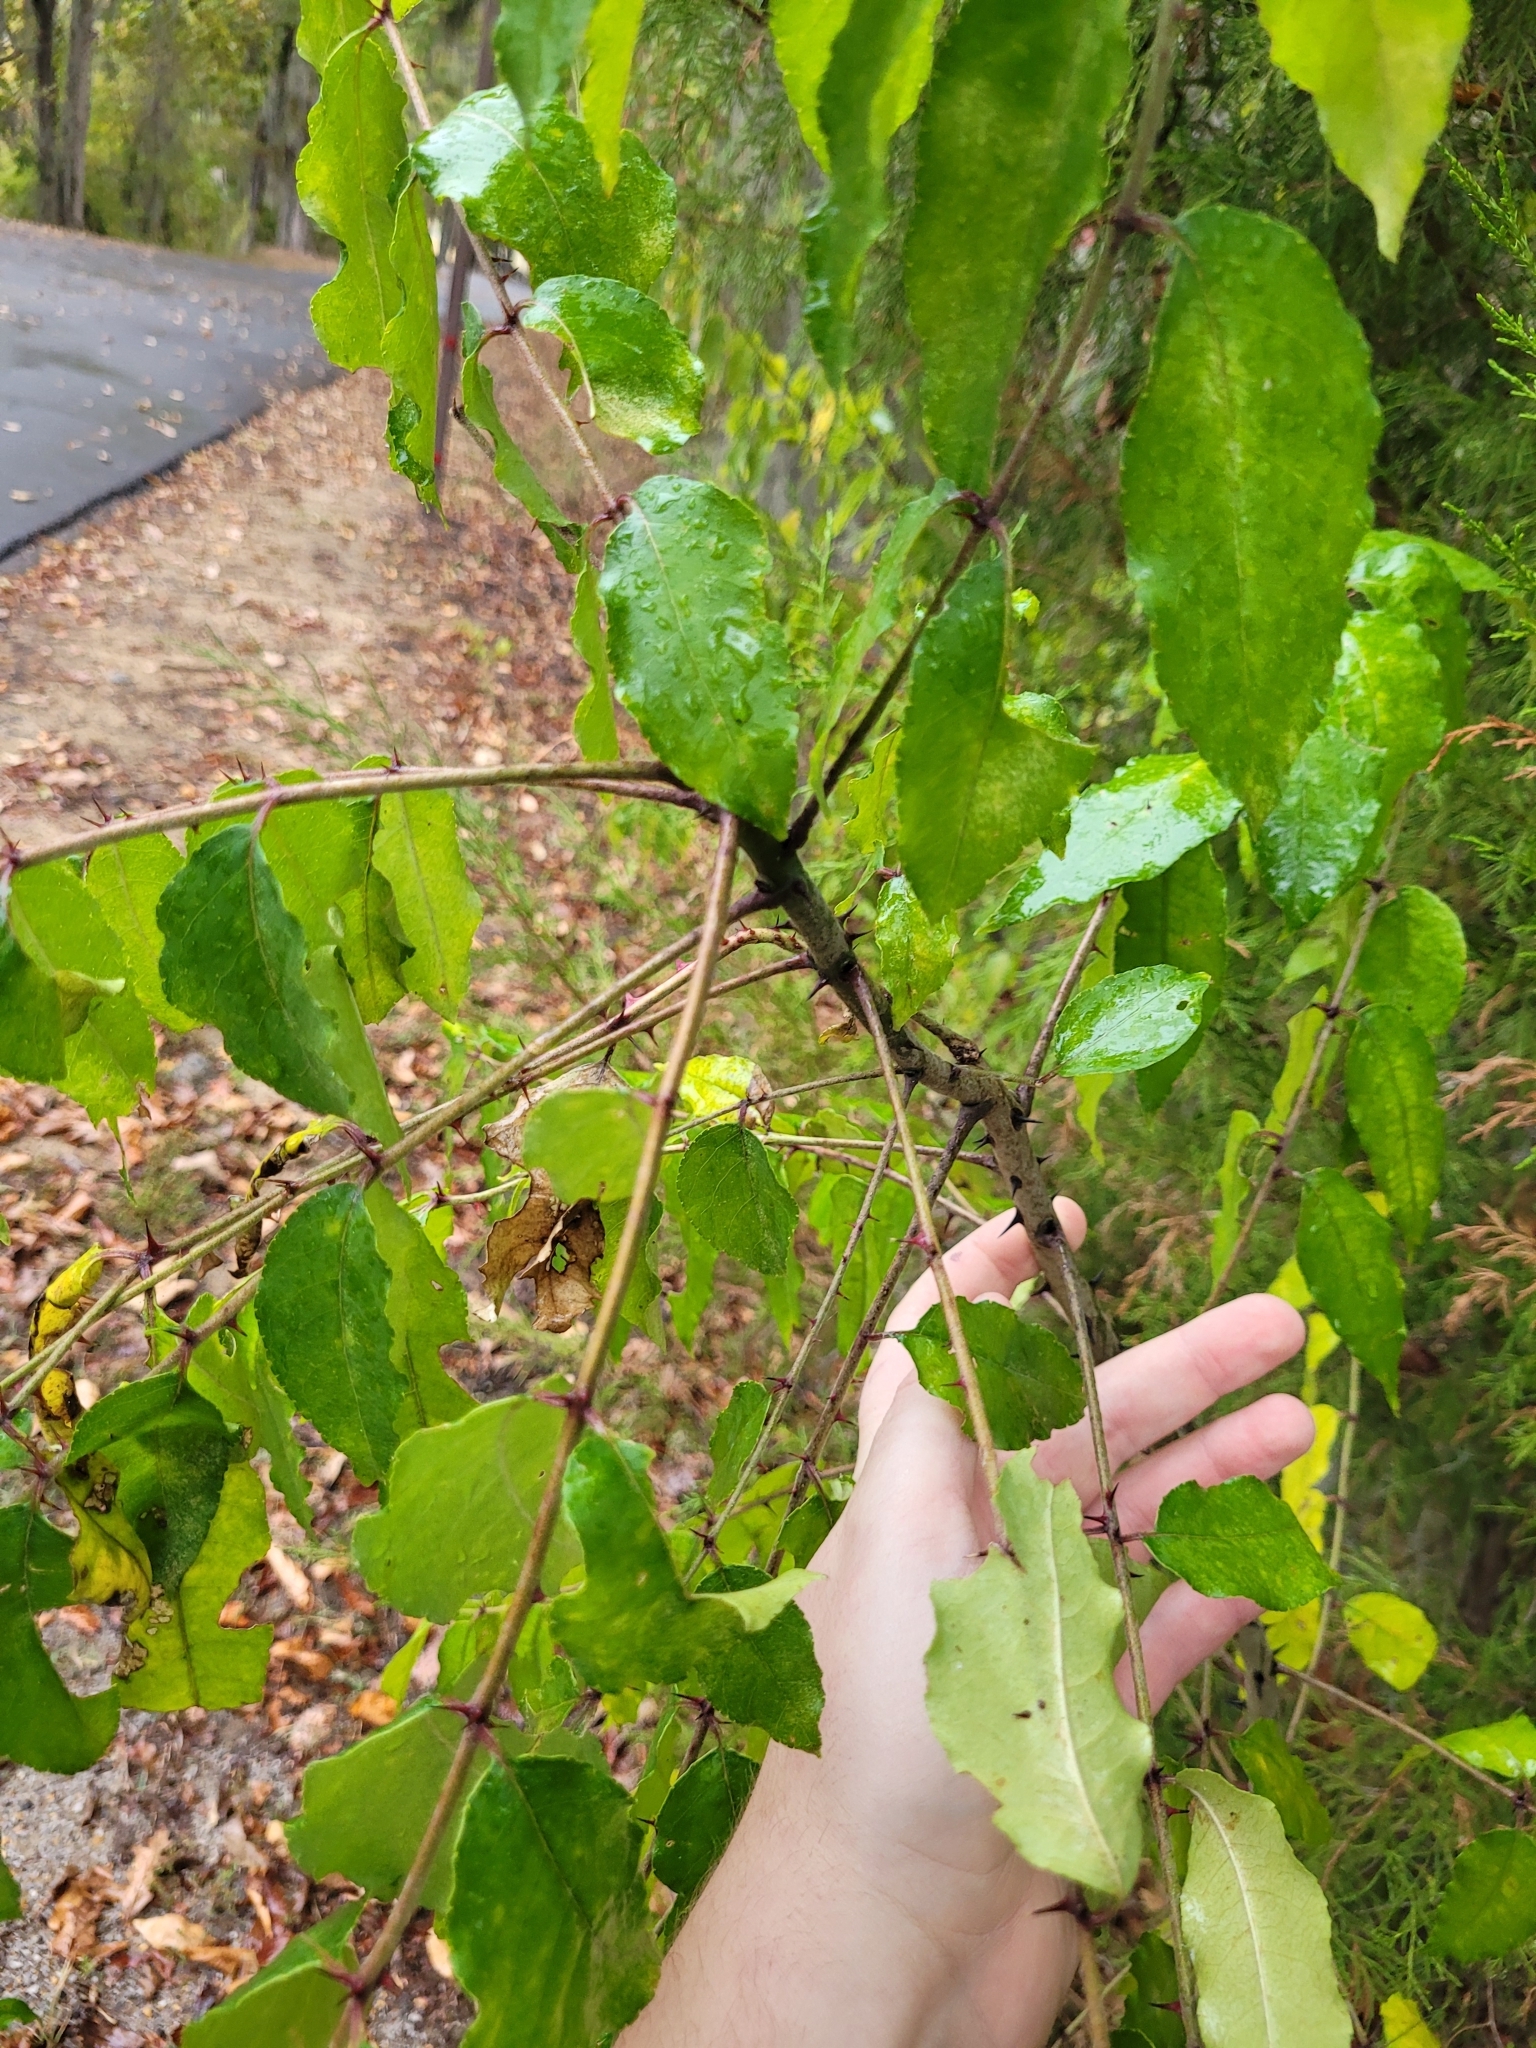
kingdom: Plantae
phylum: Tracheophyta
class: Magnoliopsida
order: Sapindales
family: Rutaceae
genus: Zanthoxylum
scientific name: Zanthoxylum clava-herculis
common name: Hercules'-club
